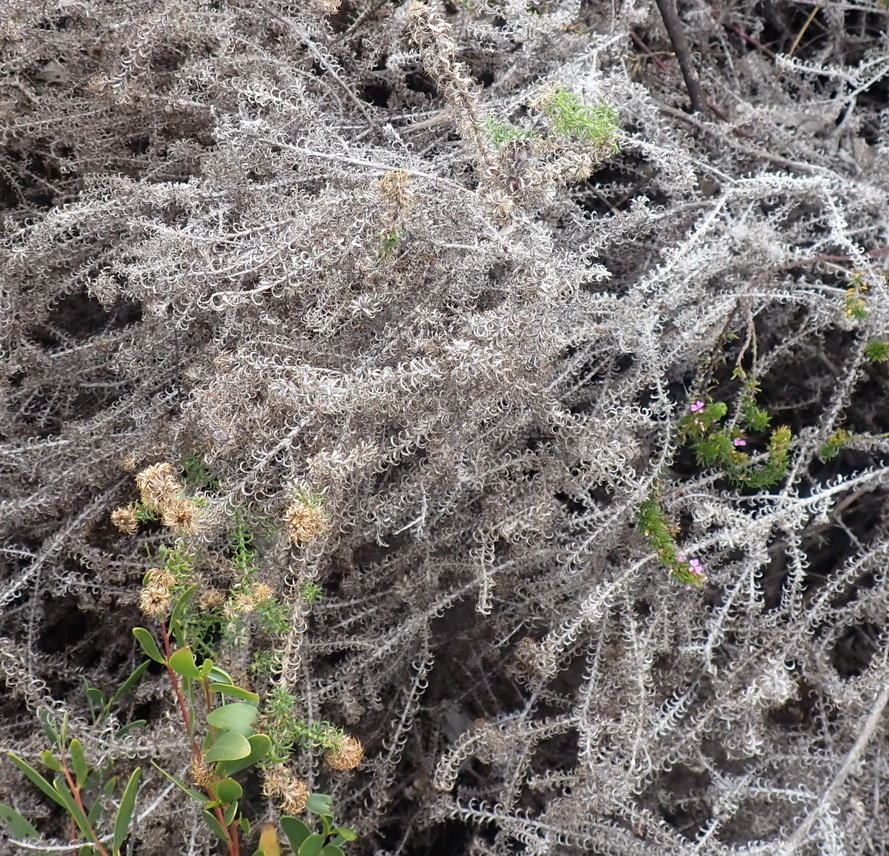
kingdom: Plantae
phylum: Tracheophyta
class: Magnoliopsida
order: Asterales
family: Asteraceae
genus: Cullumia
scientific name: Cullumia decurrens
